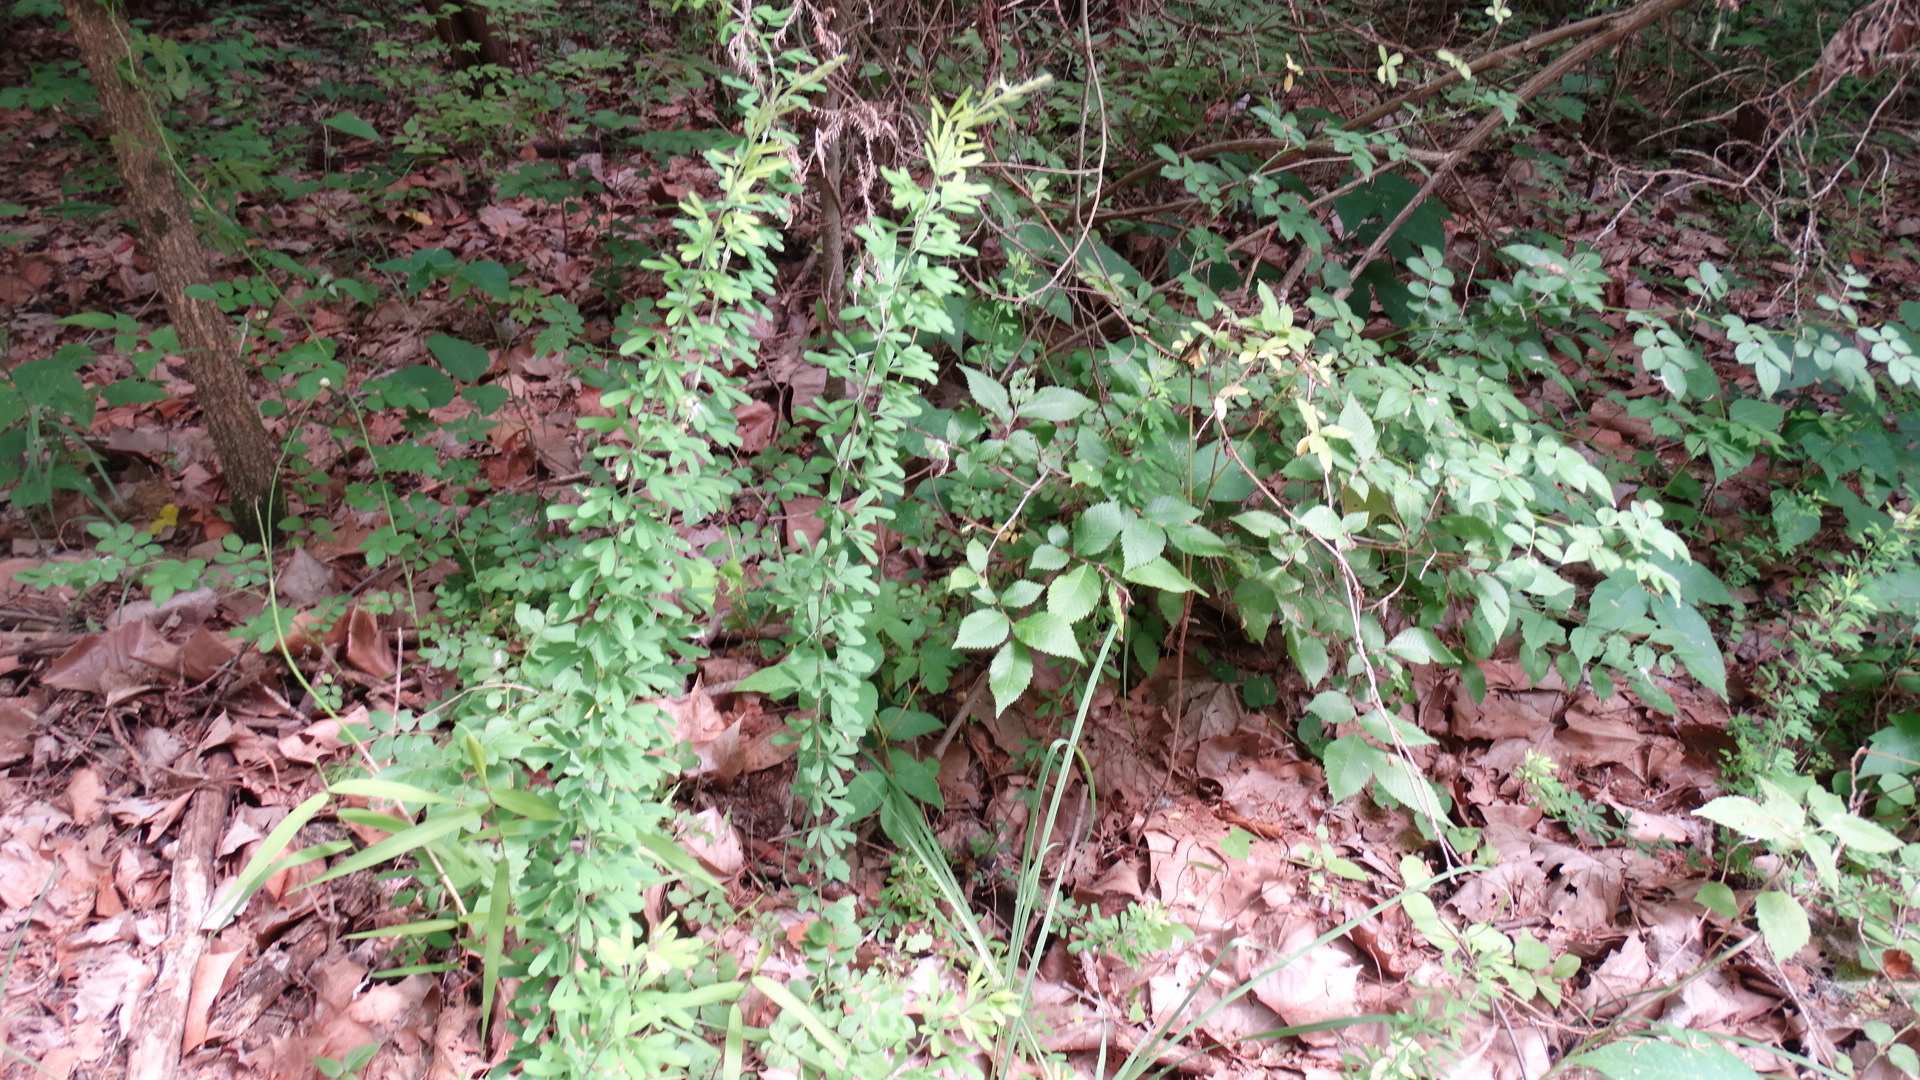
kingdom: Plantae
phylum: Tracheophyta
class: Magnoliopsida
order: Fabales
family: Fabaceae
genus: Lespedeza
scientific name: Lespedeza cuneata
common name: Chinese bush-clover
